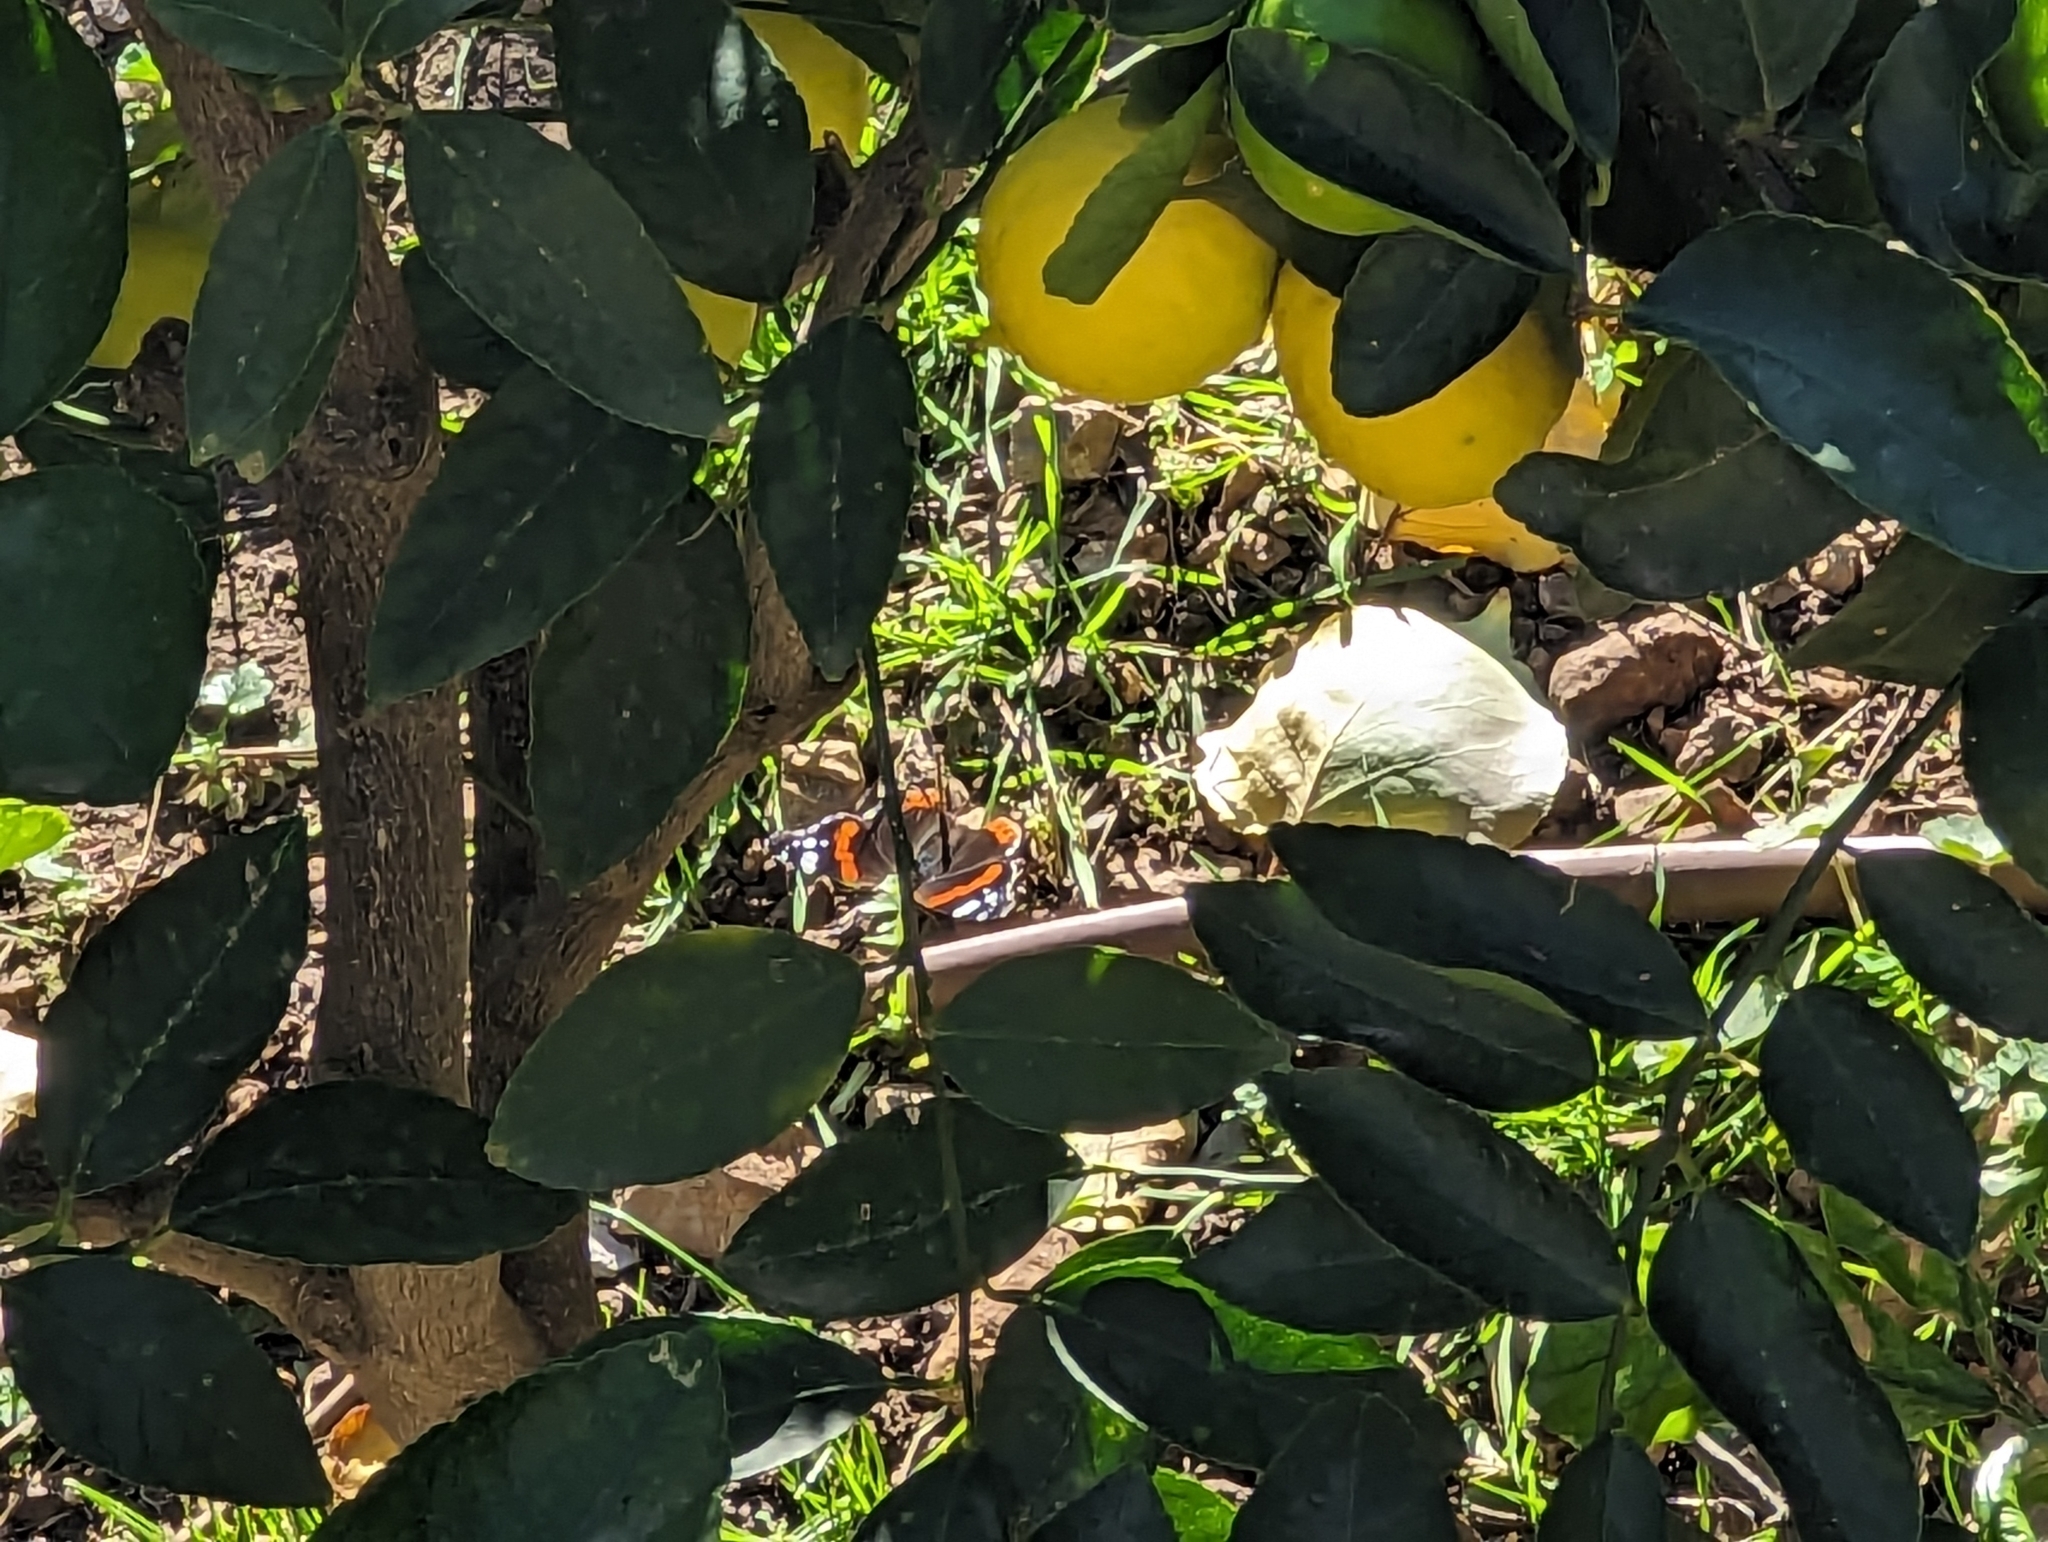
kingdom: Animalia
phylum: Arthropoda
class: Insecta
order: Lepidoptera
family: Nymphalidae
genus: Vanessa
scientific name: Vanessa atalanta
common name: Red admiral
